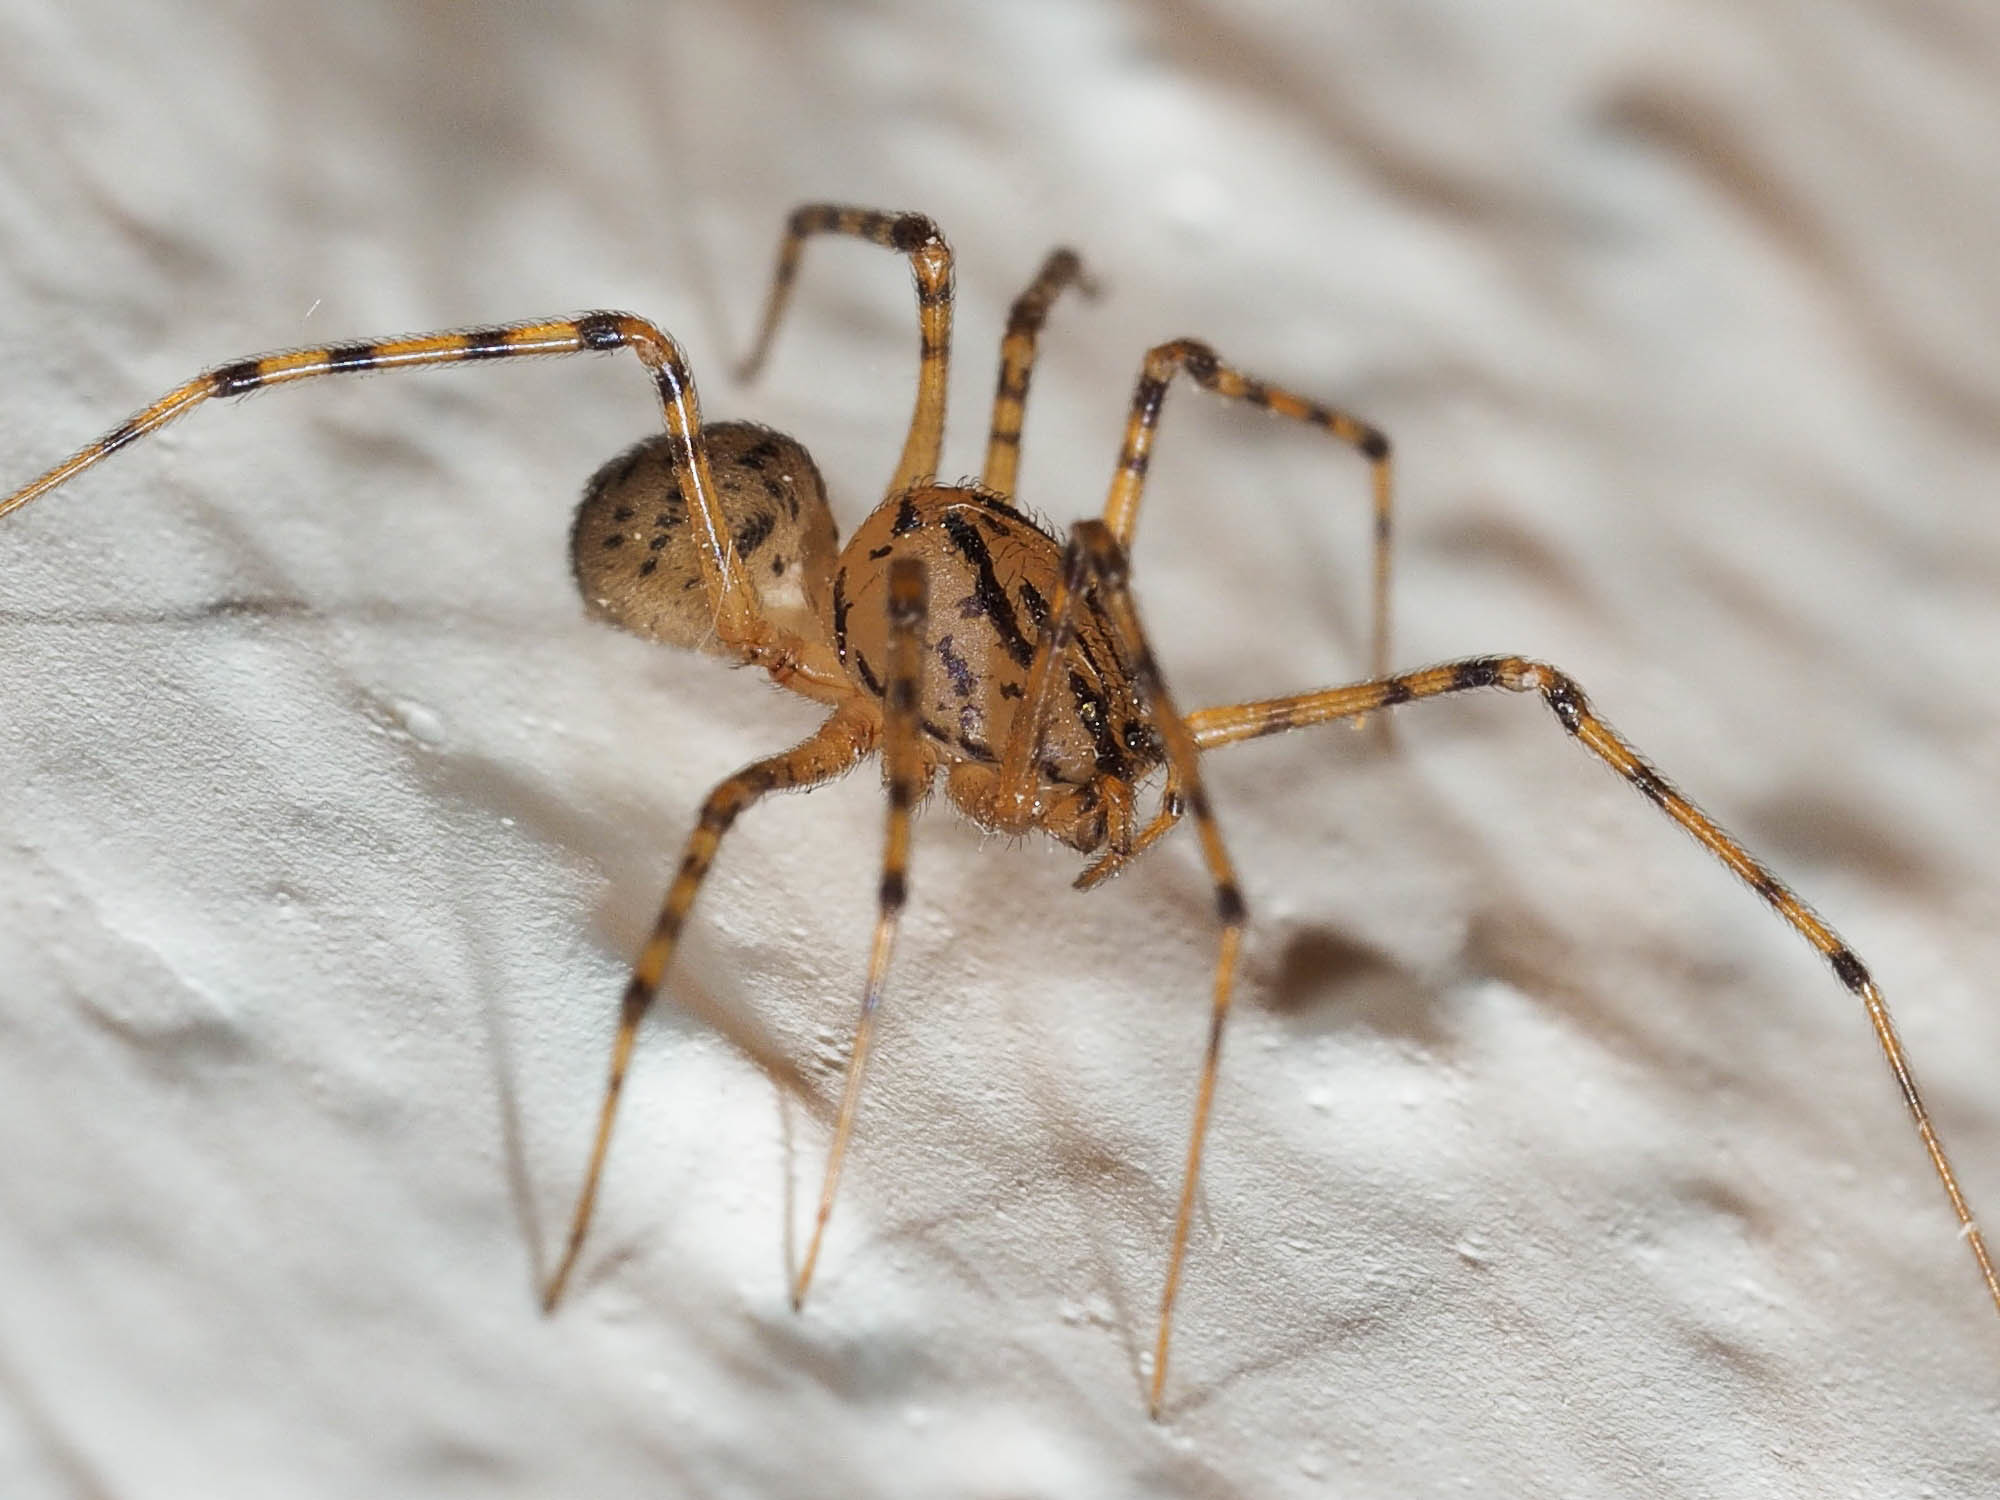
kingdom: Animalia
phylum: Arthropoda
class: Arachnida
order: Araneae
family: Scytodidae
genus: Scytodes
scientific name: Scytodes thoracica
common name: Spitting spider
